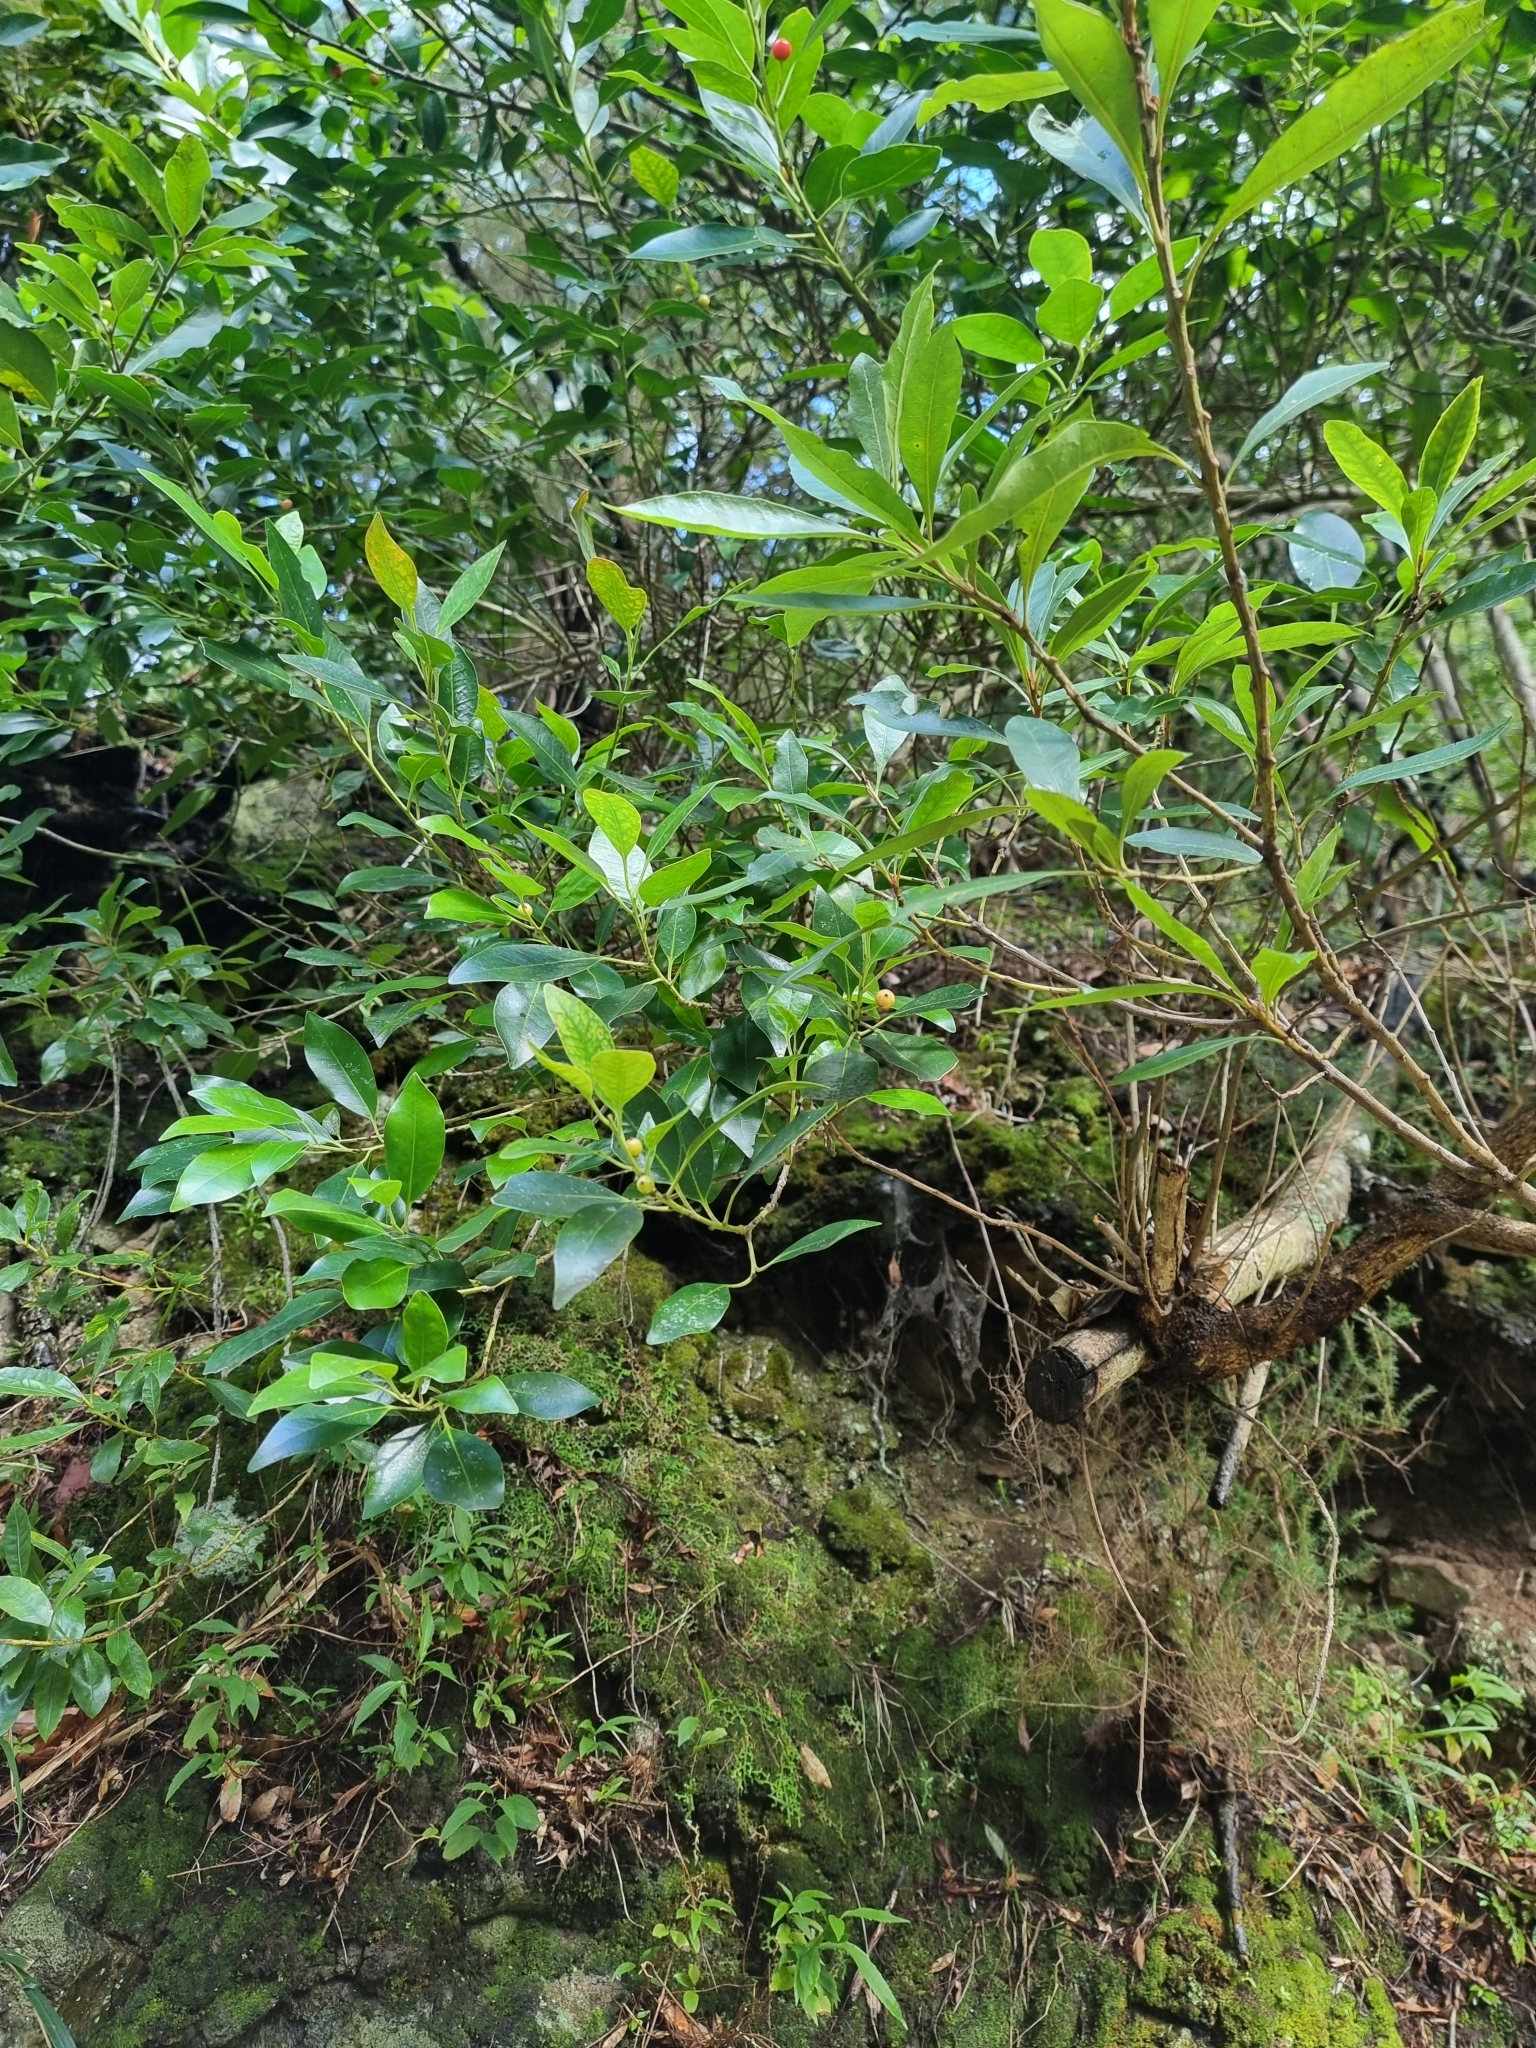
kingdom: Plantae
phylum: Tracheophyta
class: Magnoliopsida
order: Aquifoliales
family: Aquifoliaceae
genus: Ilex
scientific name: Ilex canariensis
